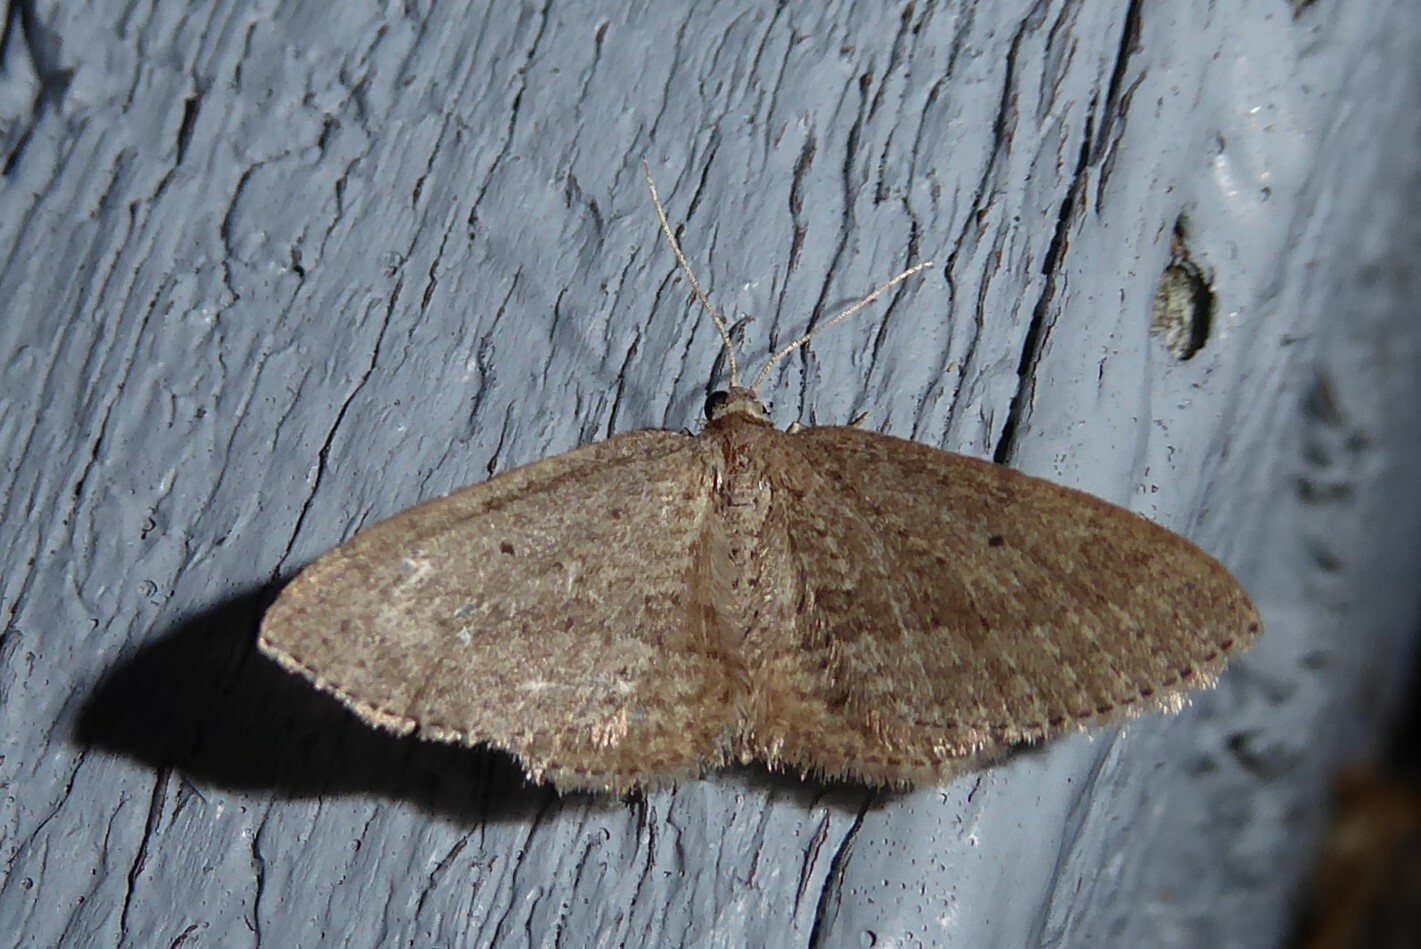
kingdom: Animalia
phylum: Arthropoda
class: Insecta
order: Lepidoptera
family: Geometridae
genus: Poecilasthena
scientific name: Poecilasthena schistaria
